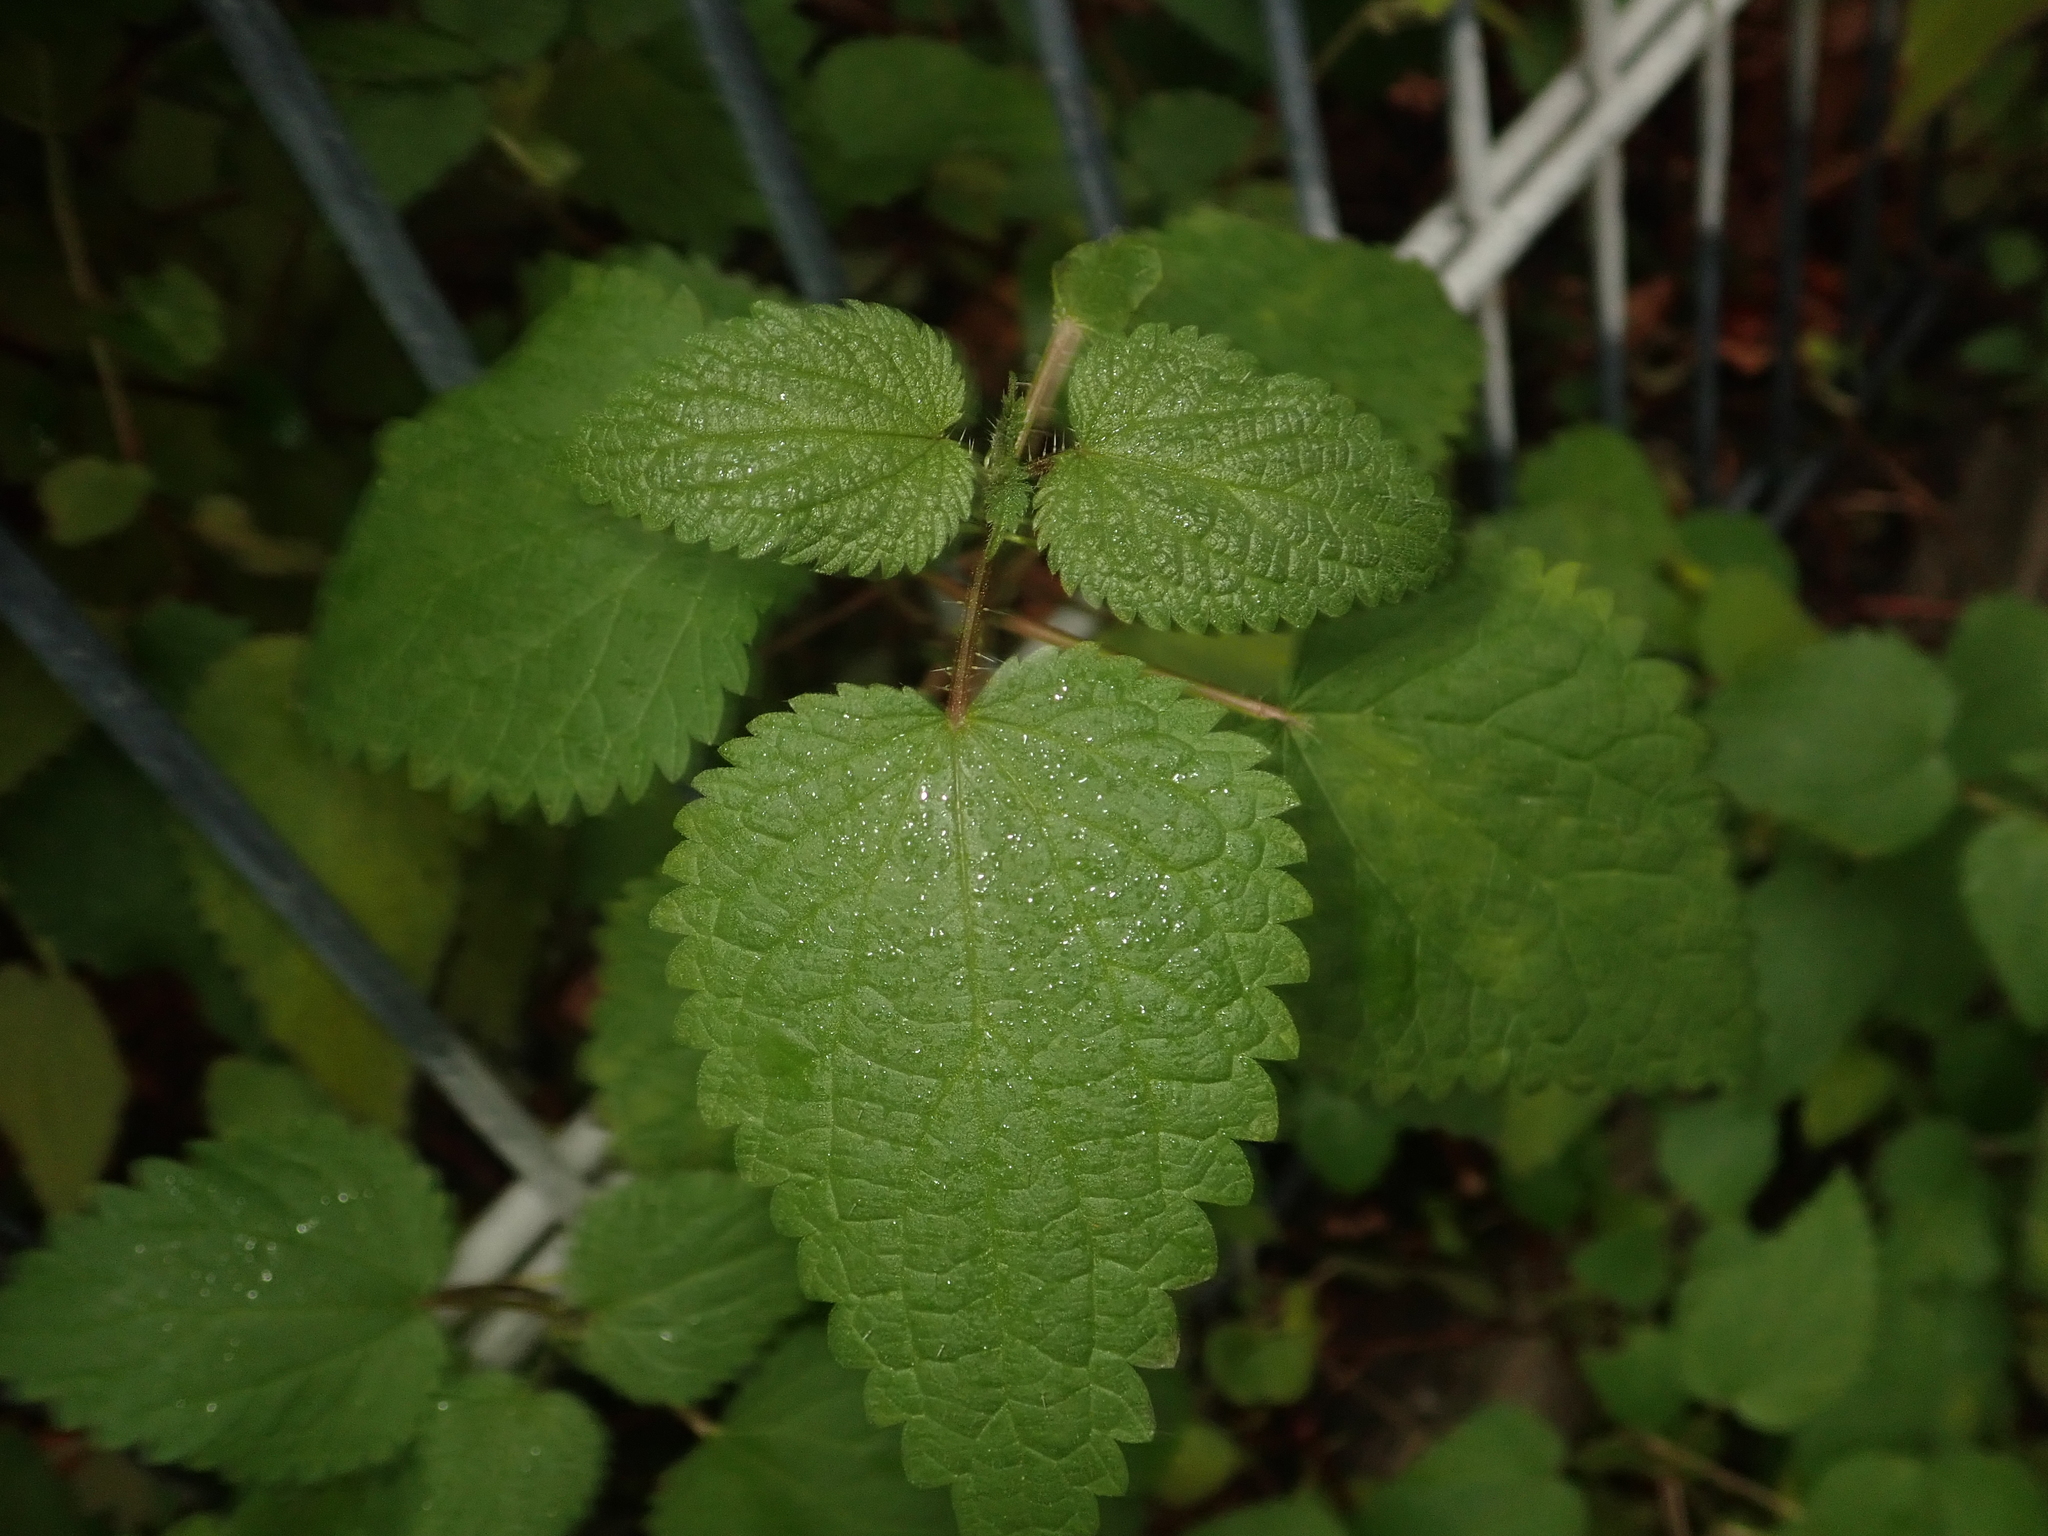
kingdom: Plantae
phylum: Tracheophyta
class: Magnoliopsida
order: Rosales
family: Urticaceae
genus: Urtica
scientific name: Urtica dioica
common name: Common nettle
